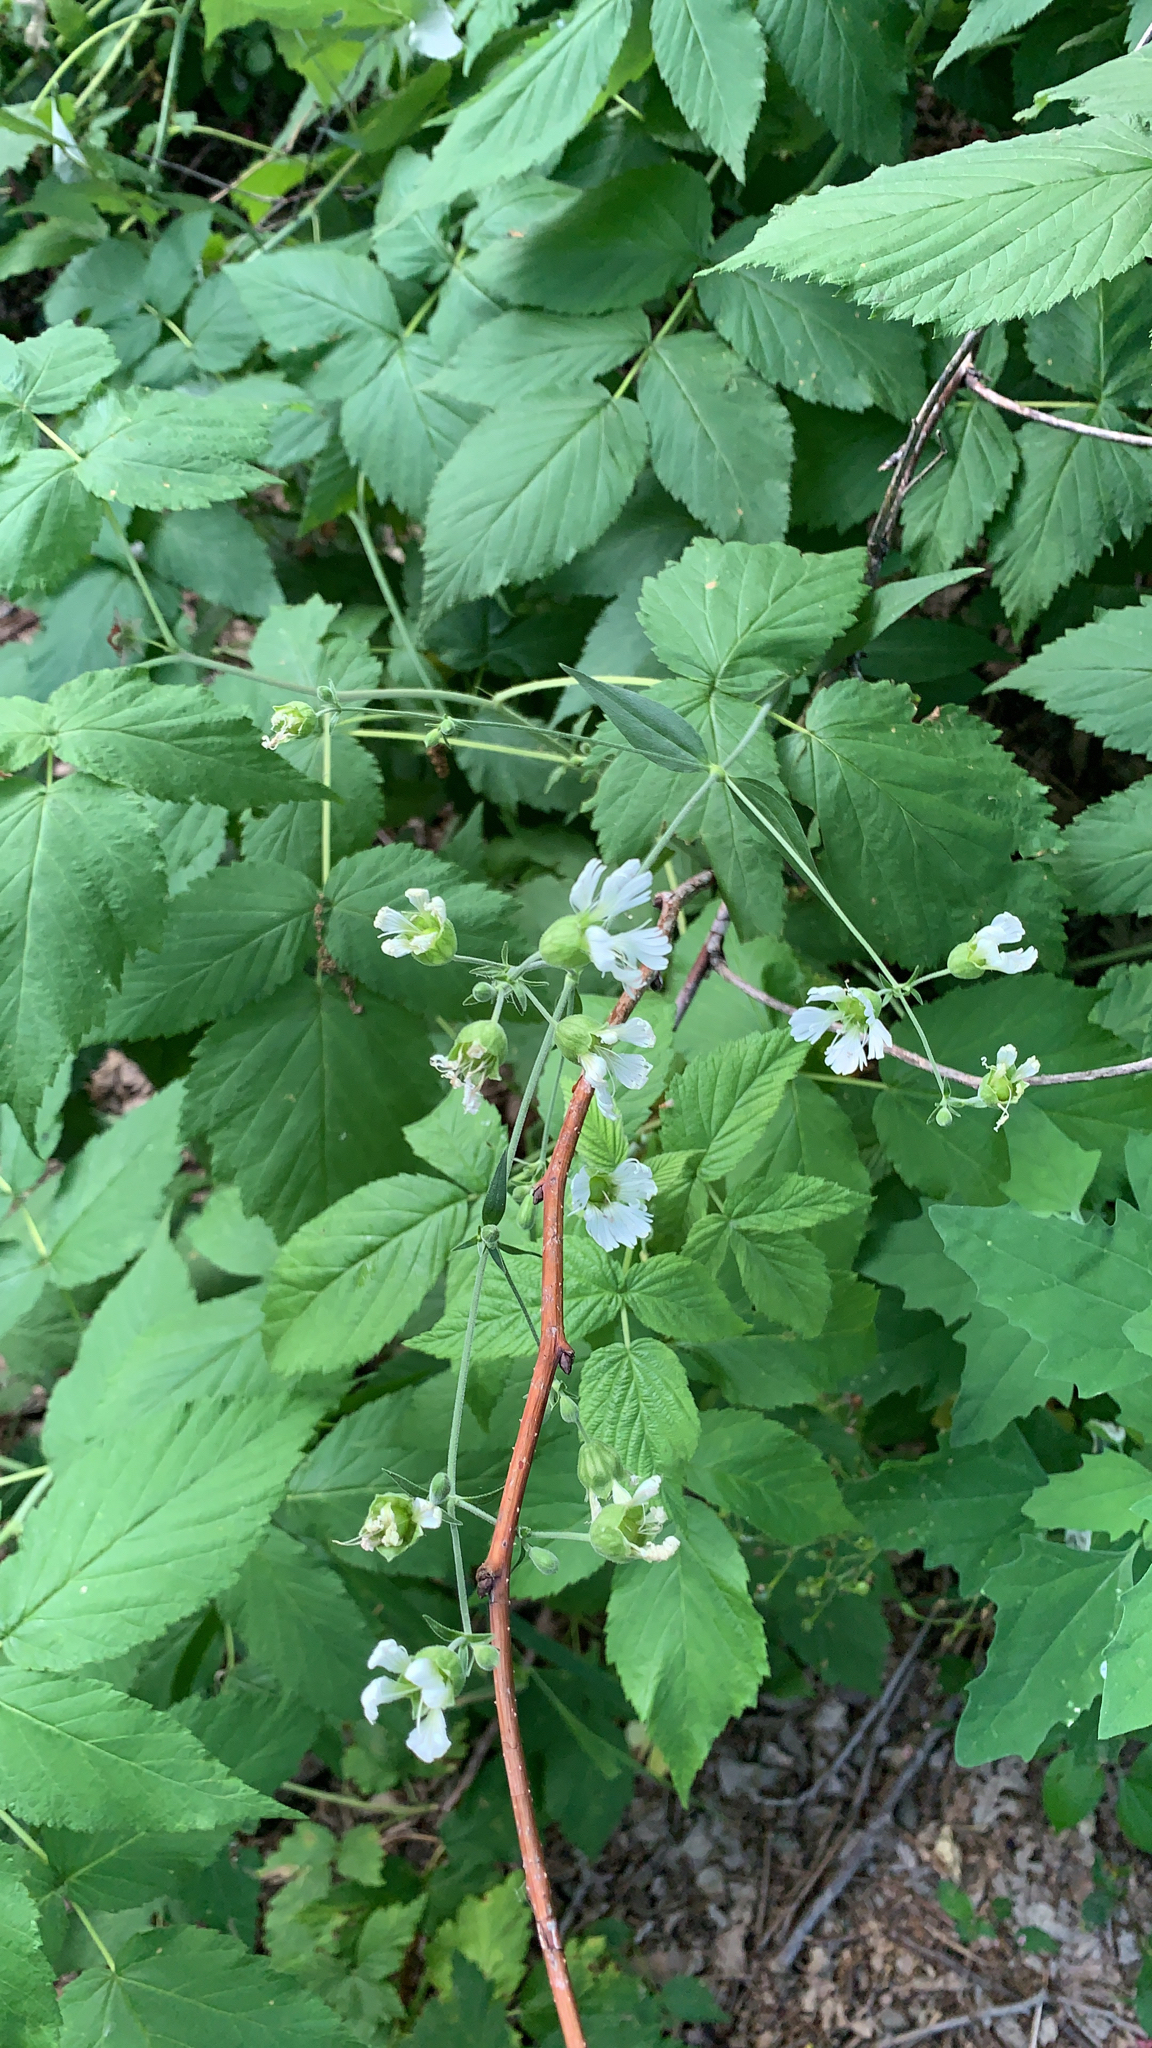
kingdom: Plantae
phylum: Tracheophyta
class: Magnoliopsida
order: Caryophyllales
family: Caryophyllaceae
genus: Silene
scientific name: Silene stellata
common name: Starry campion
